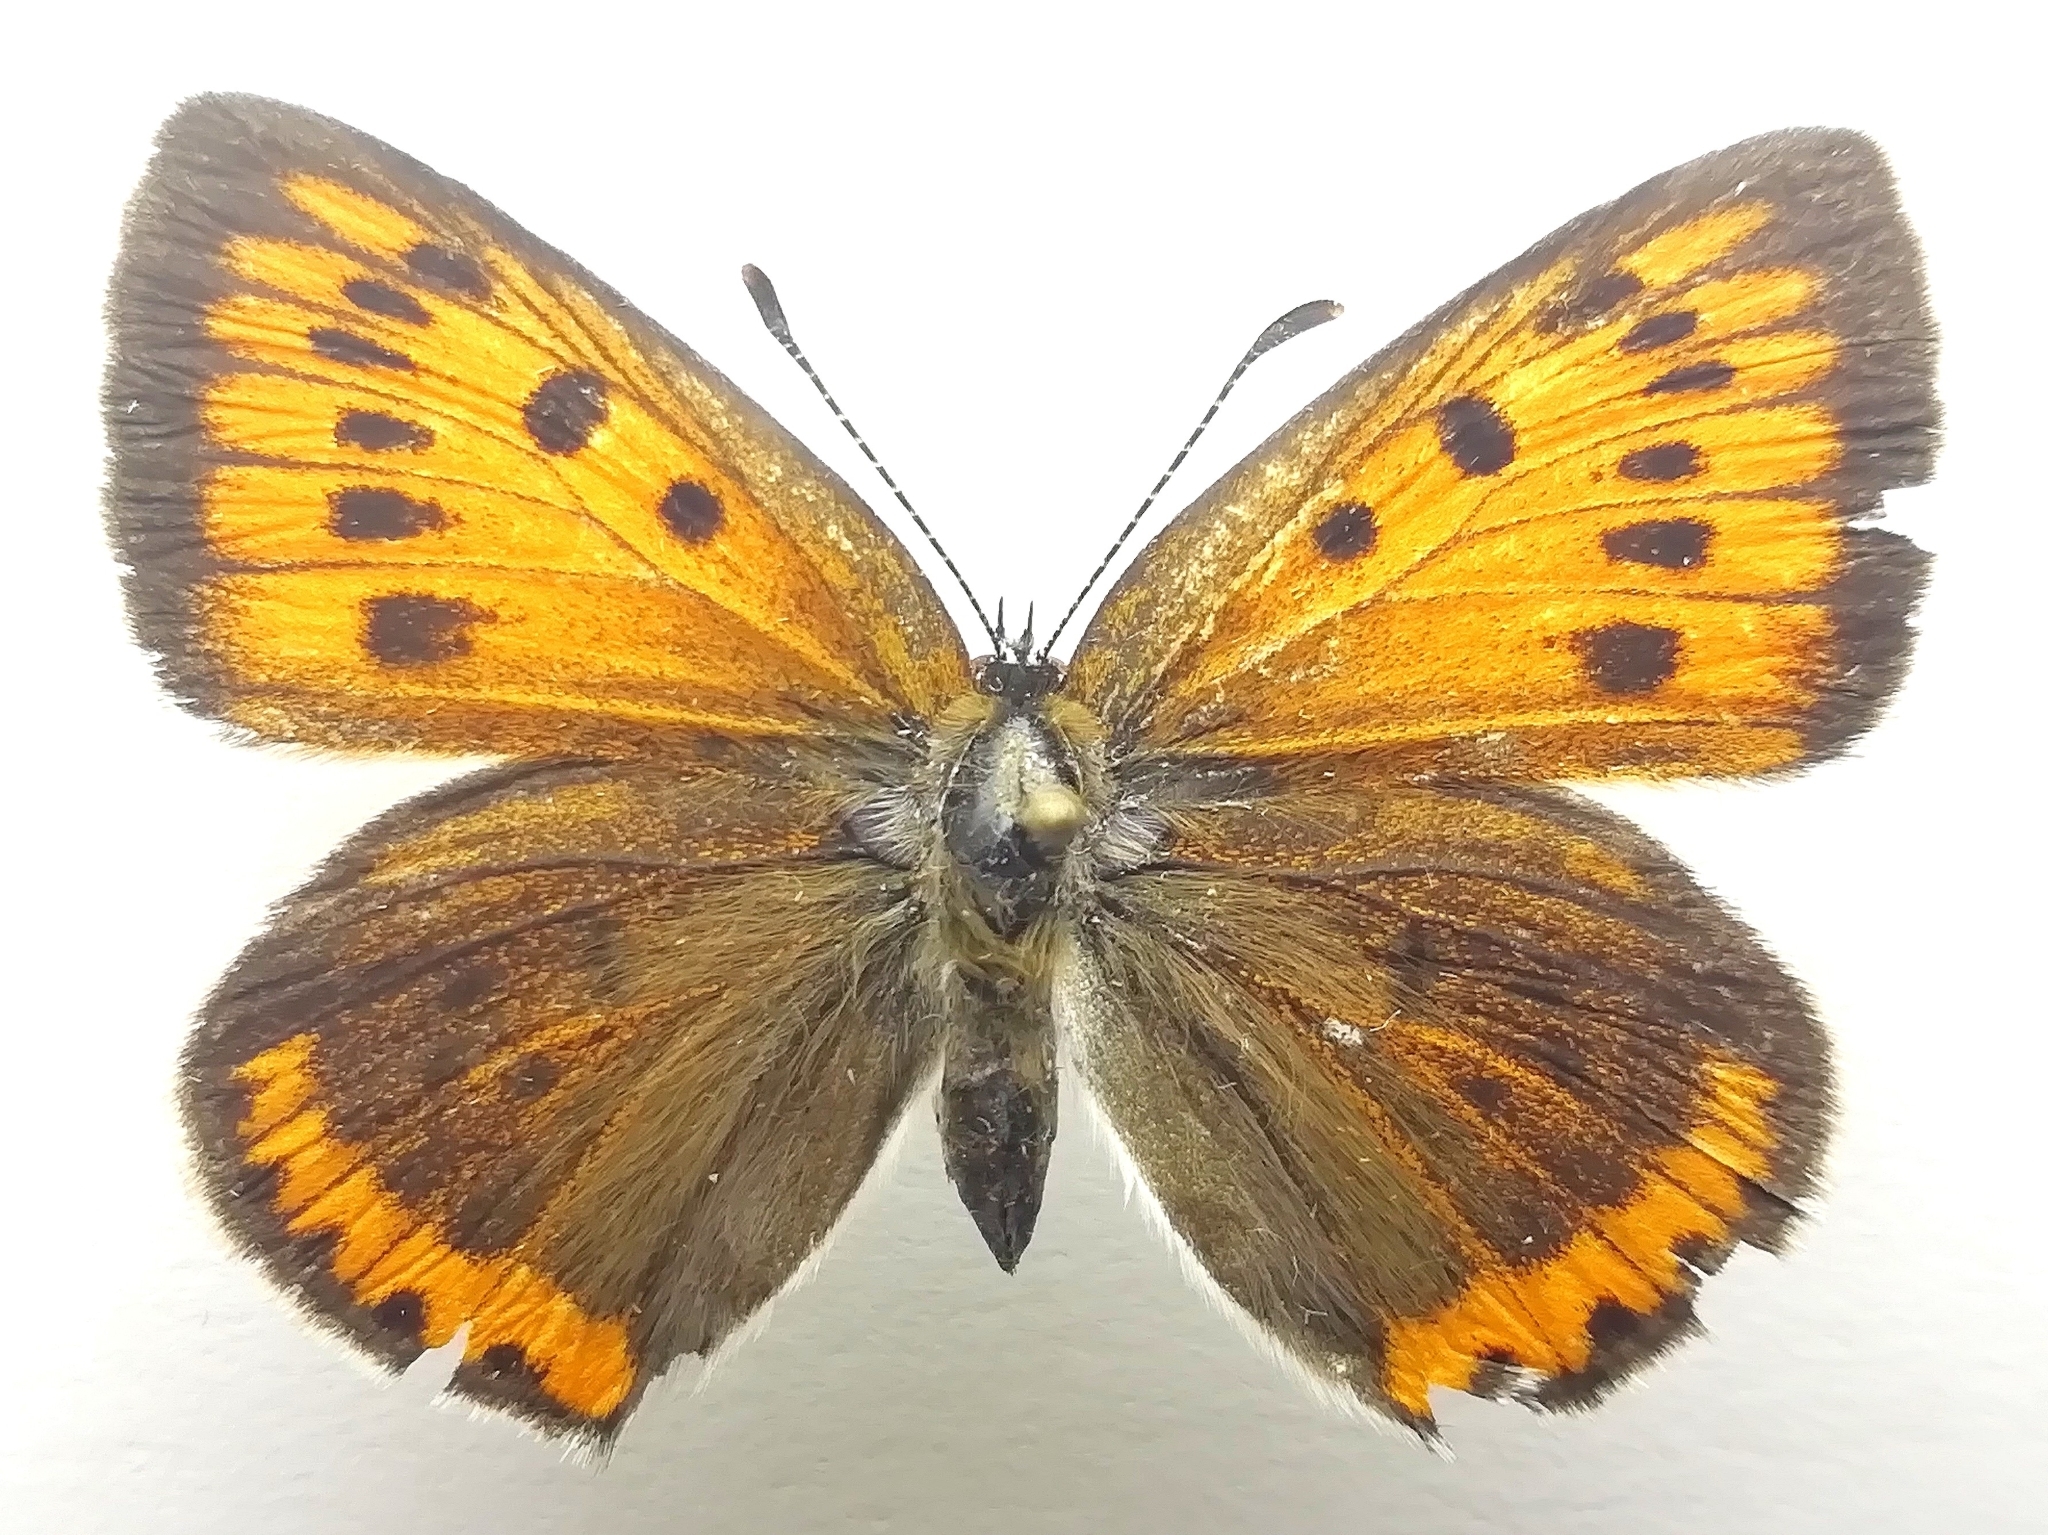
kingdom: Animalia
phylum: Arthropoda
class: Insecta
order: Lepidoptera
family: Lycaenidae
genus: Lycaena
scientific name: Lycaena dispar
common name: Large copper
